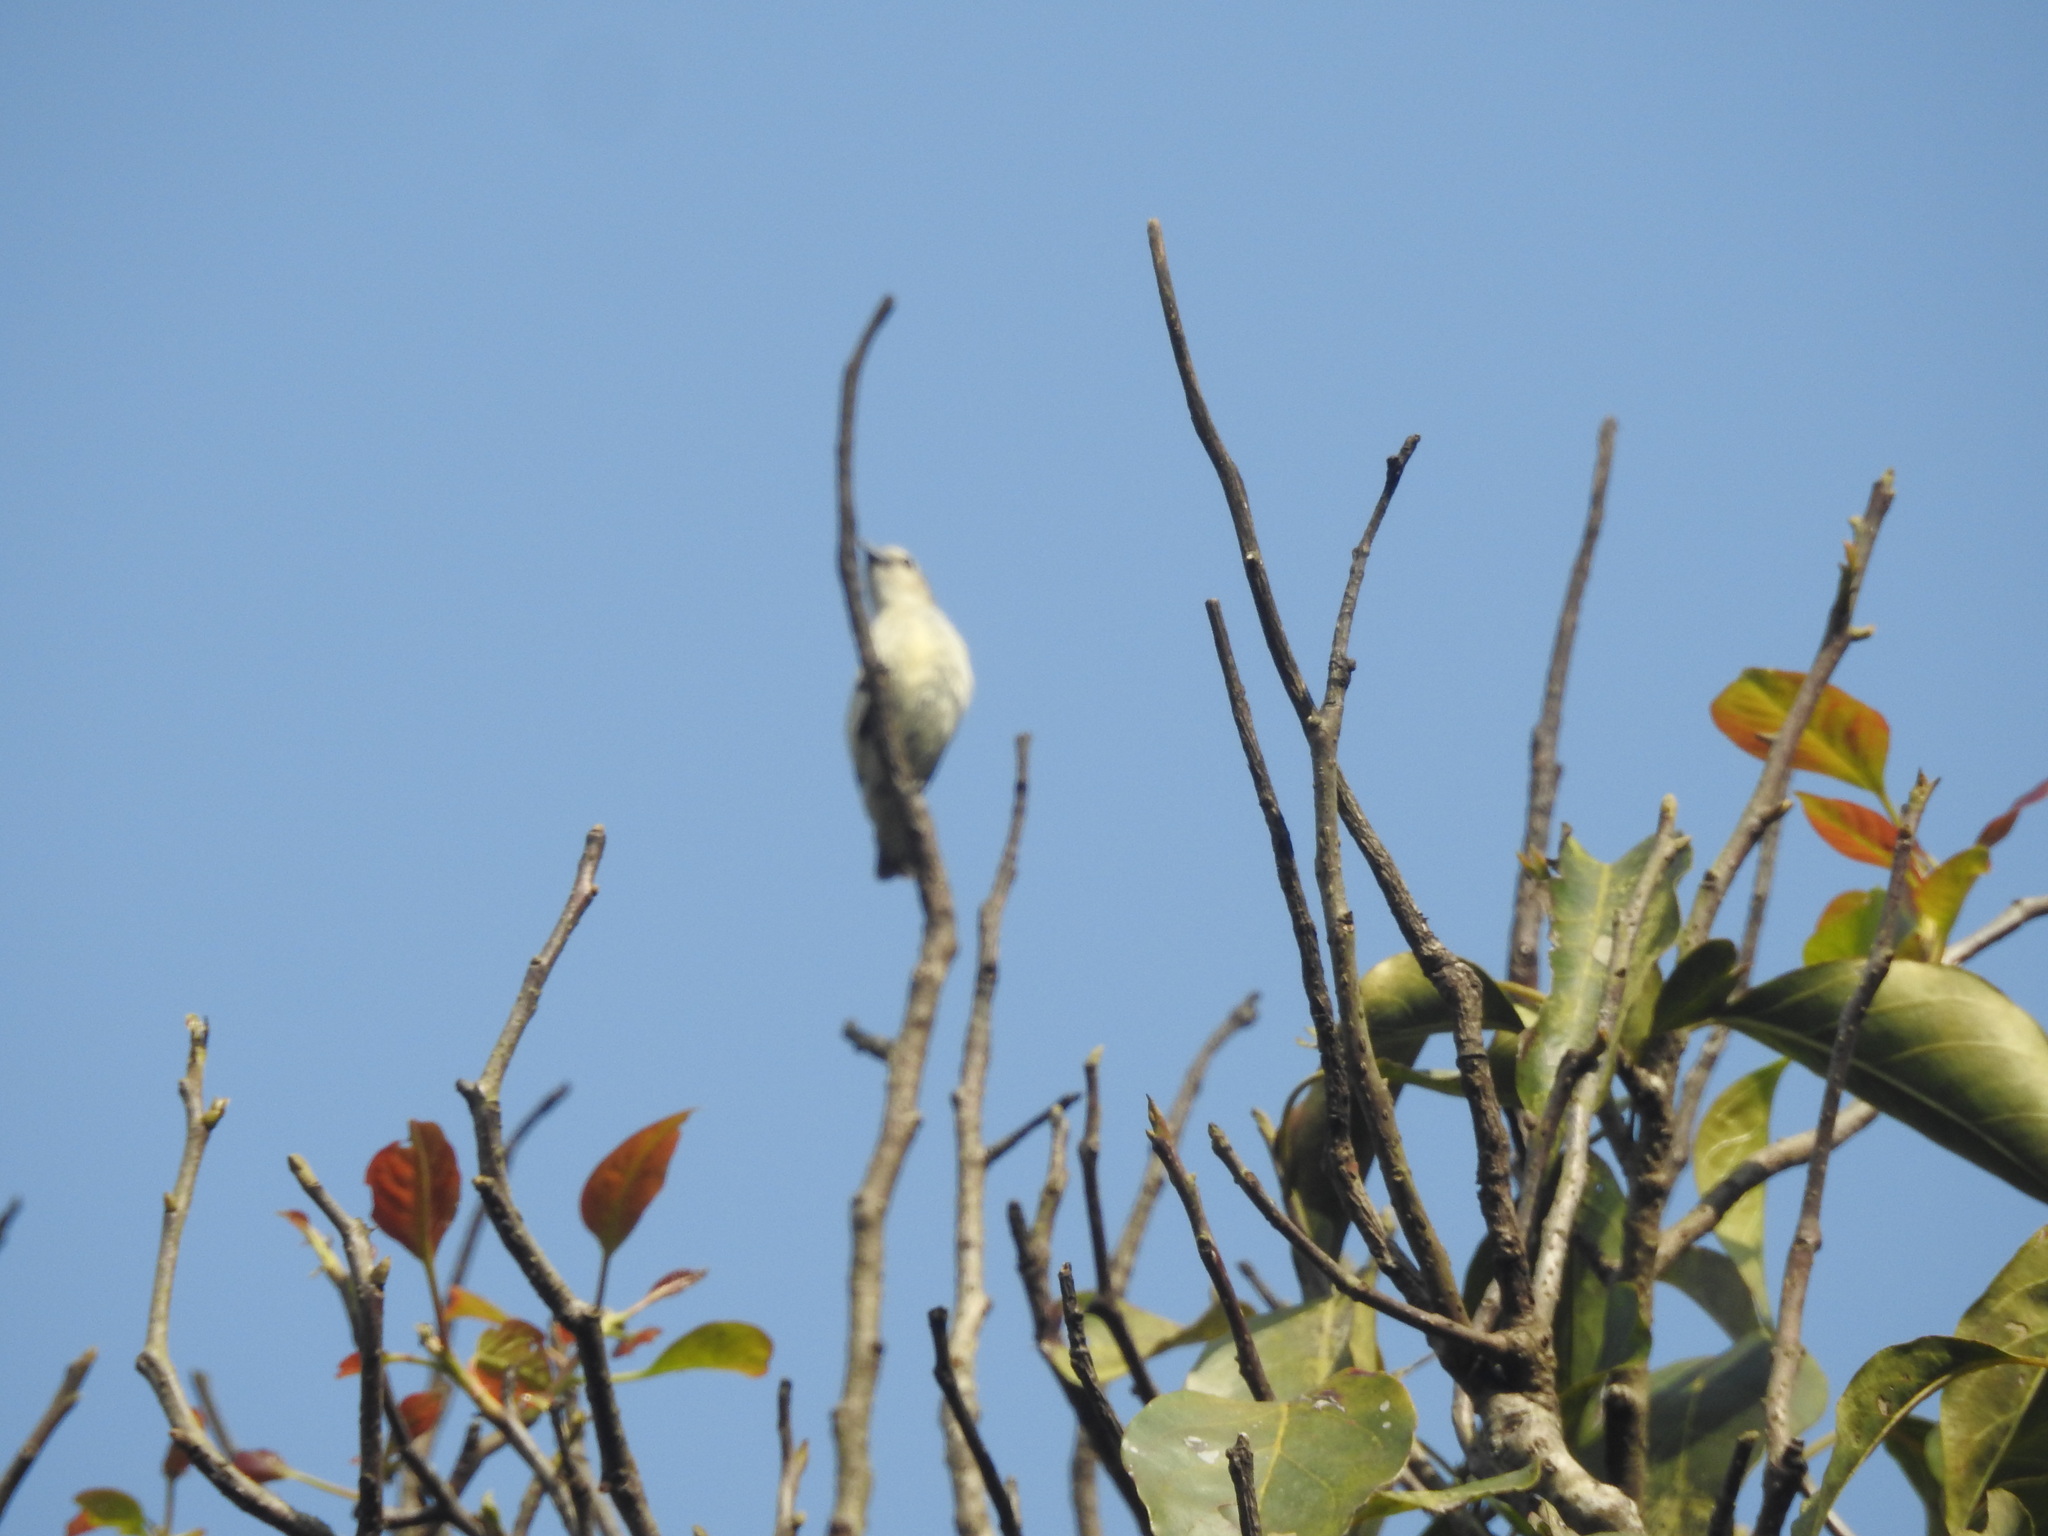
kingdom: Animalia
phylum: Chordata
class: Aves
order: Passeriformes
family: Dicaeidae
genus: Dicaeum
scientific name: Dicaeum concolor
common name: Nilgiri flowerpecker
